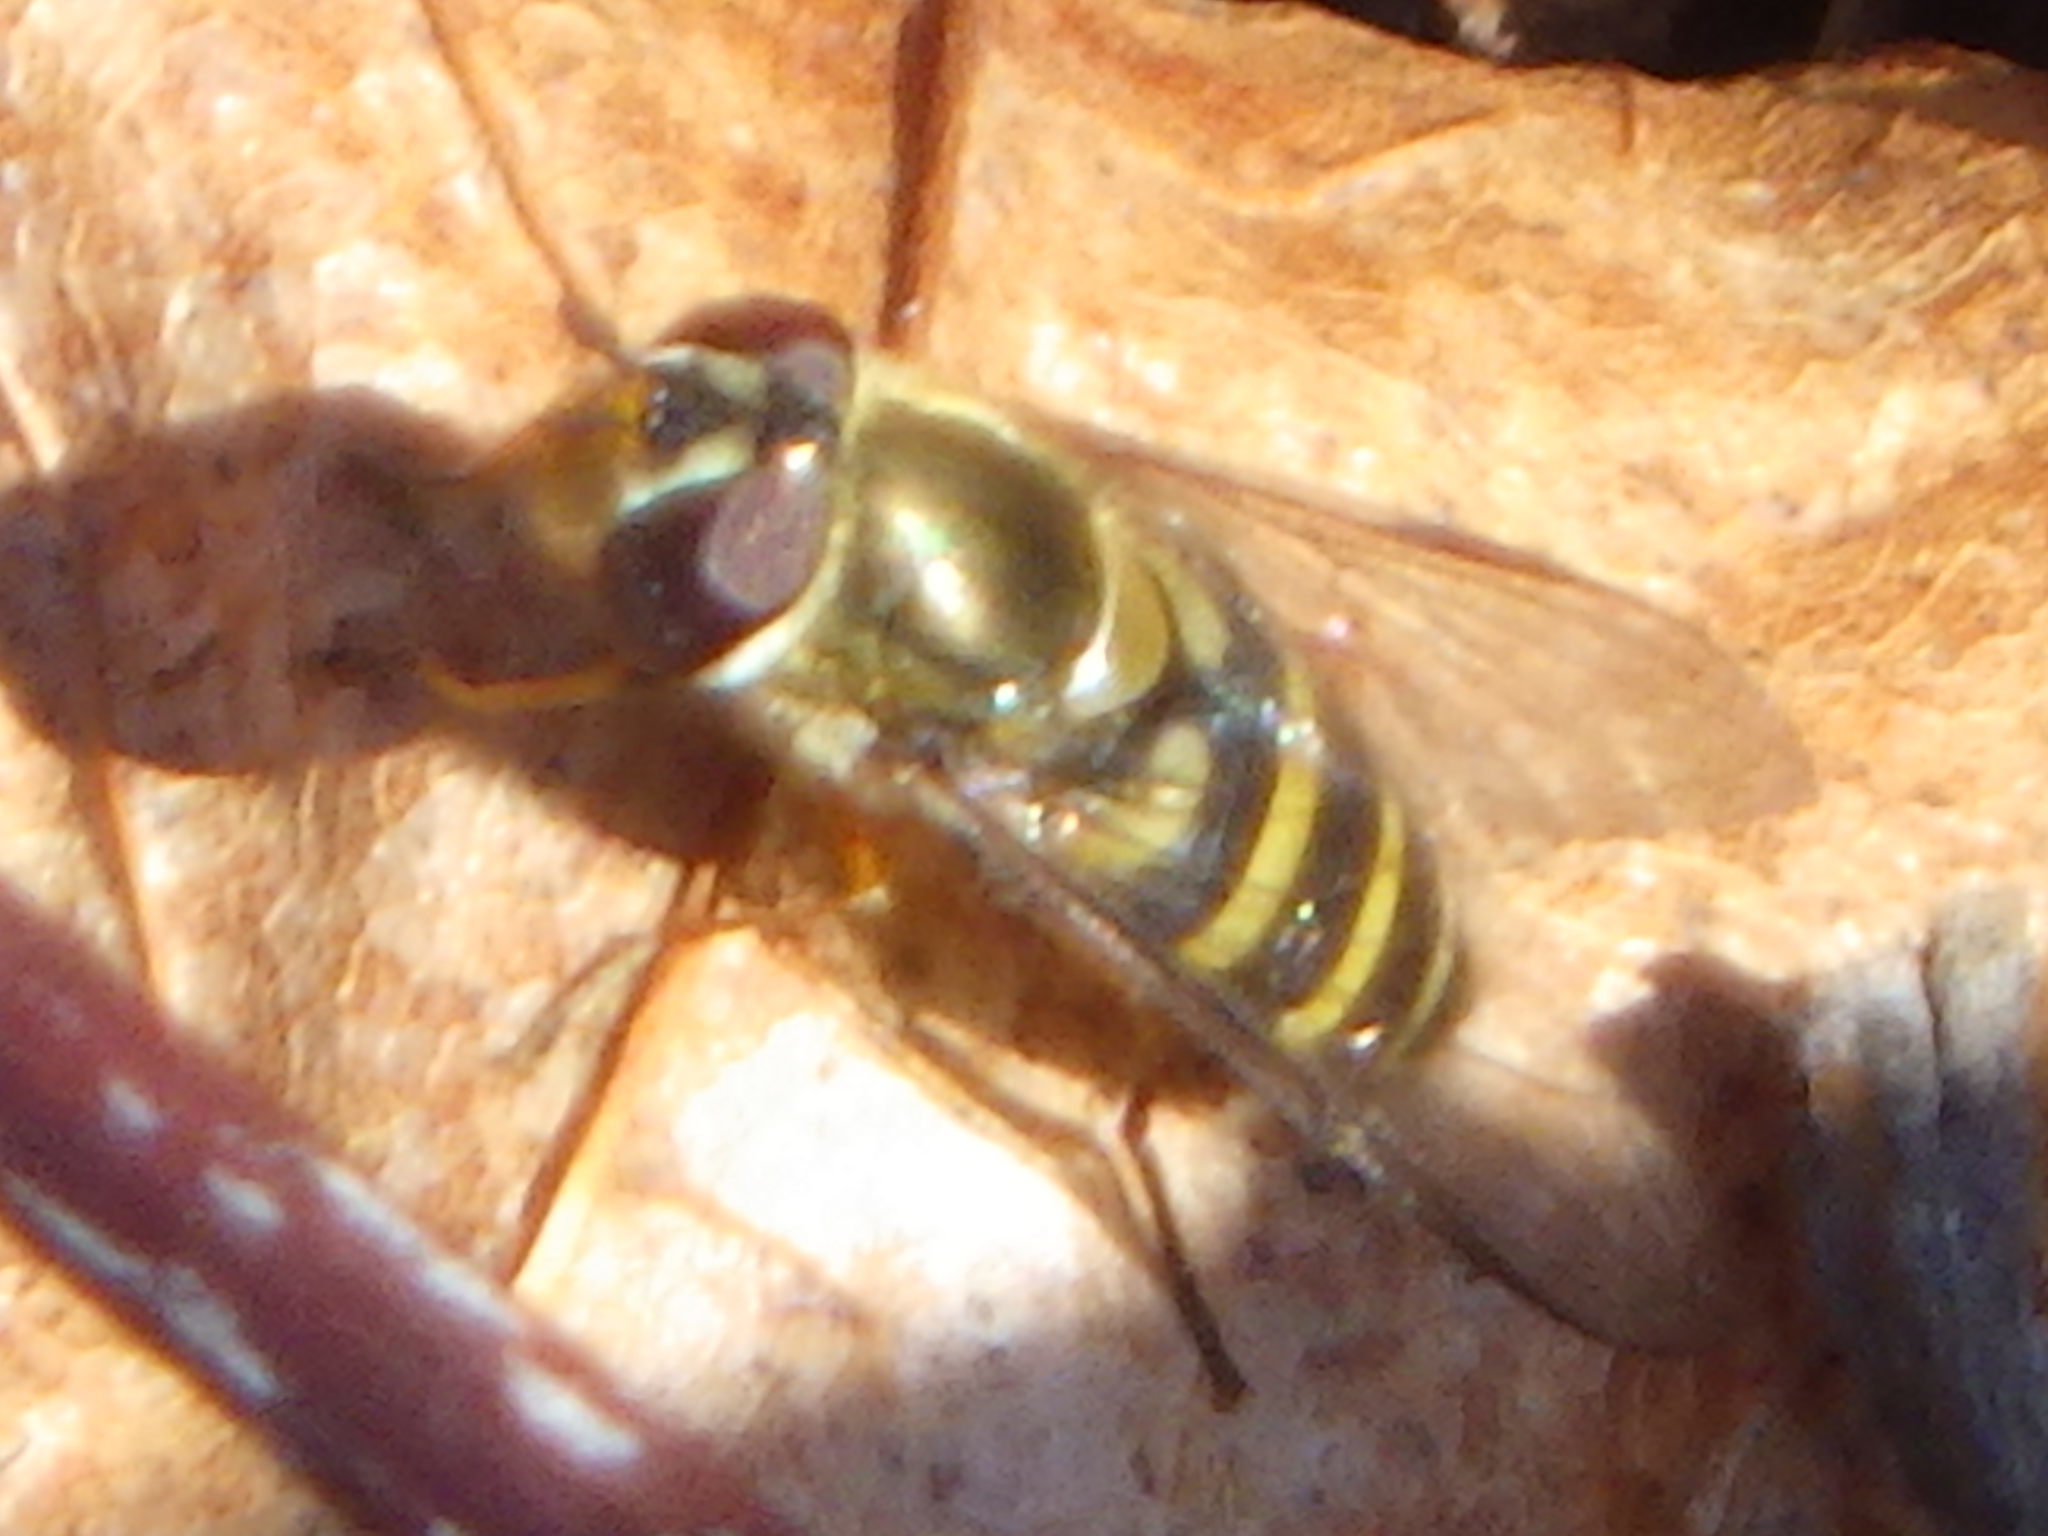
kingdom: Animalia
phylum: Arthropoda
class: Insecta
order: Diptera
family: Syrphidae
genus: Syrphus
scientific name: Syrphus
